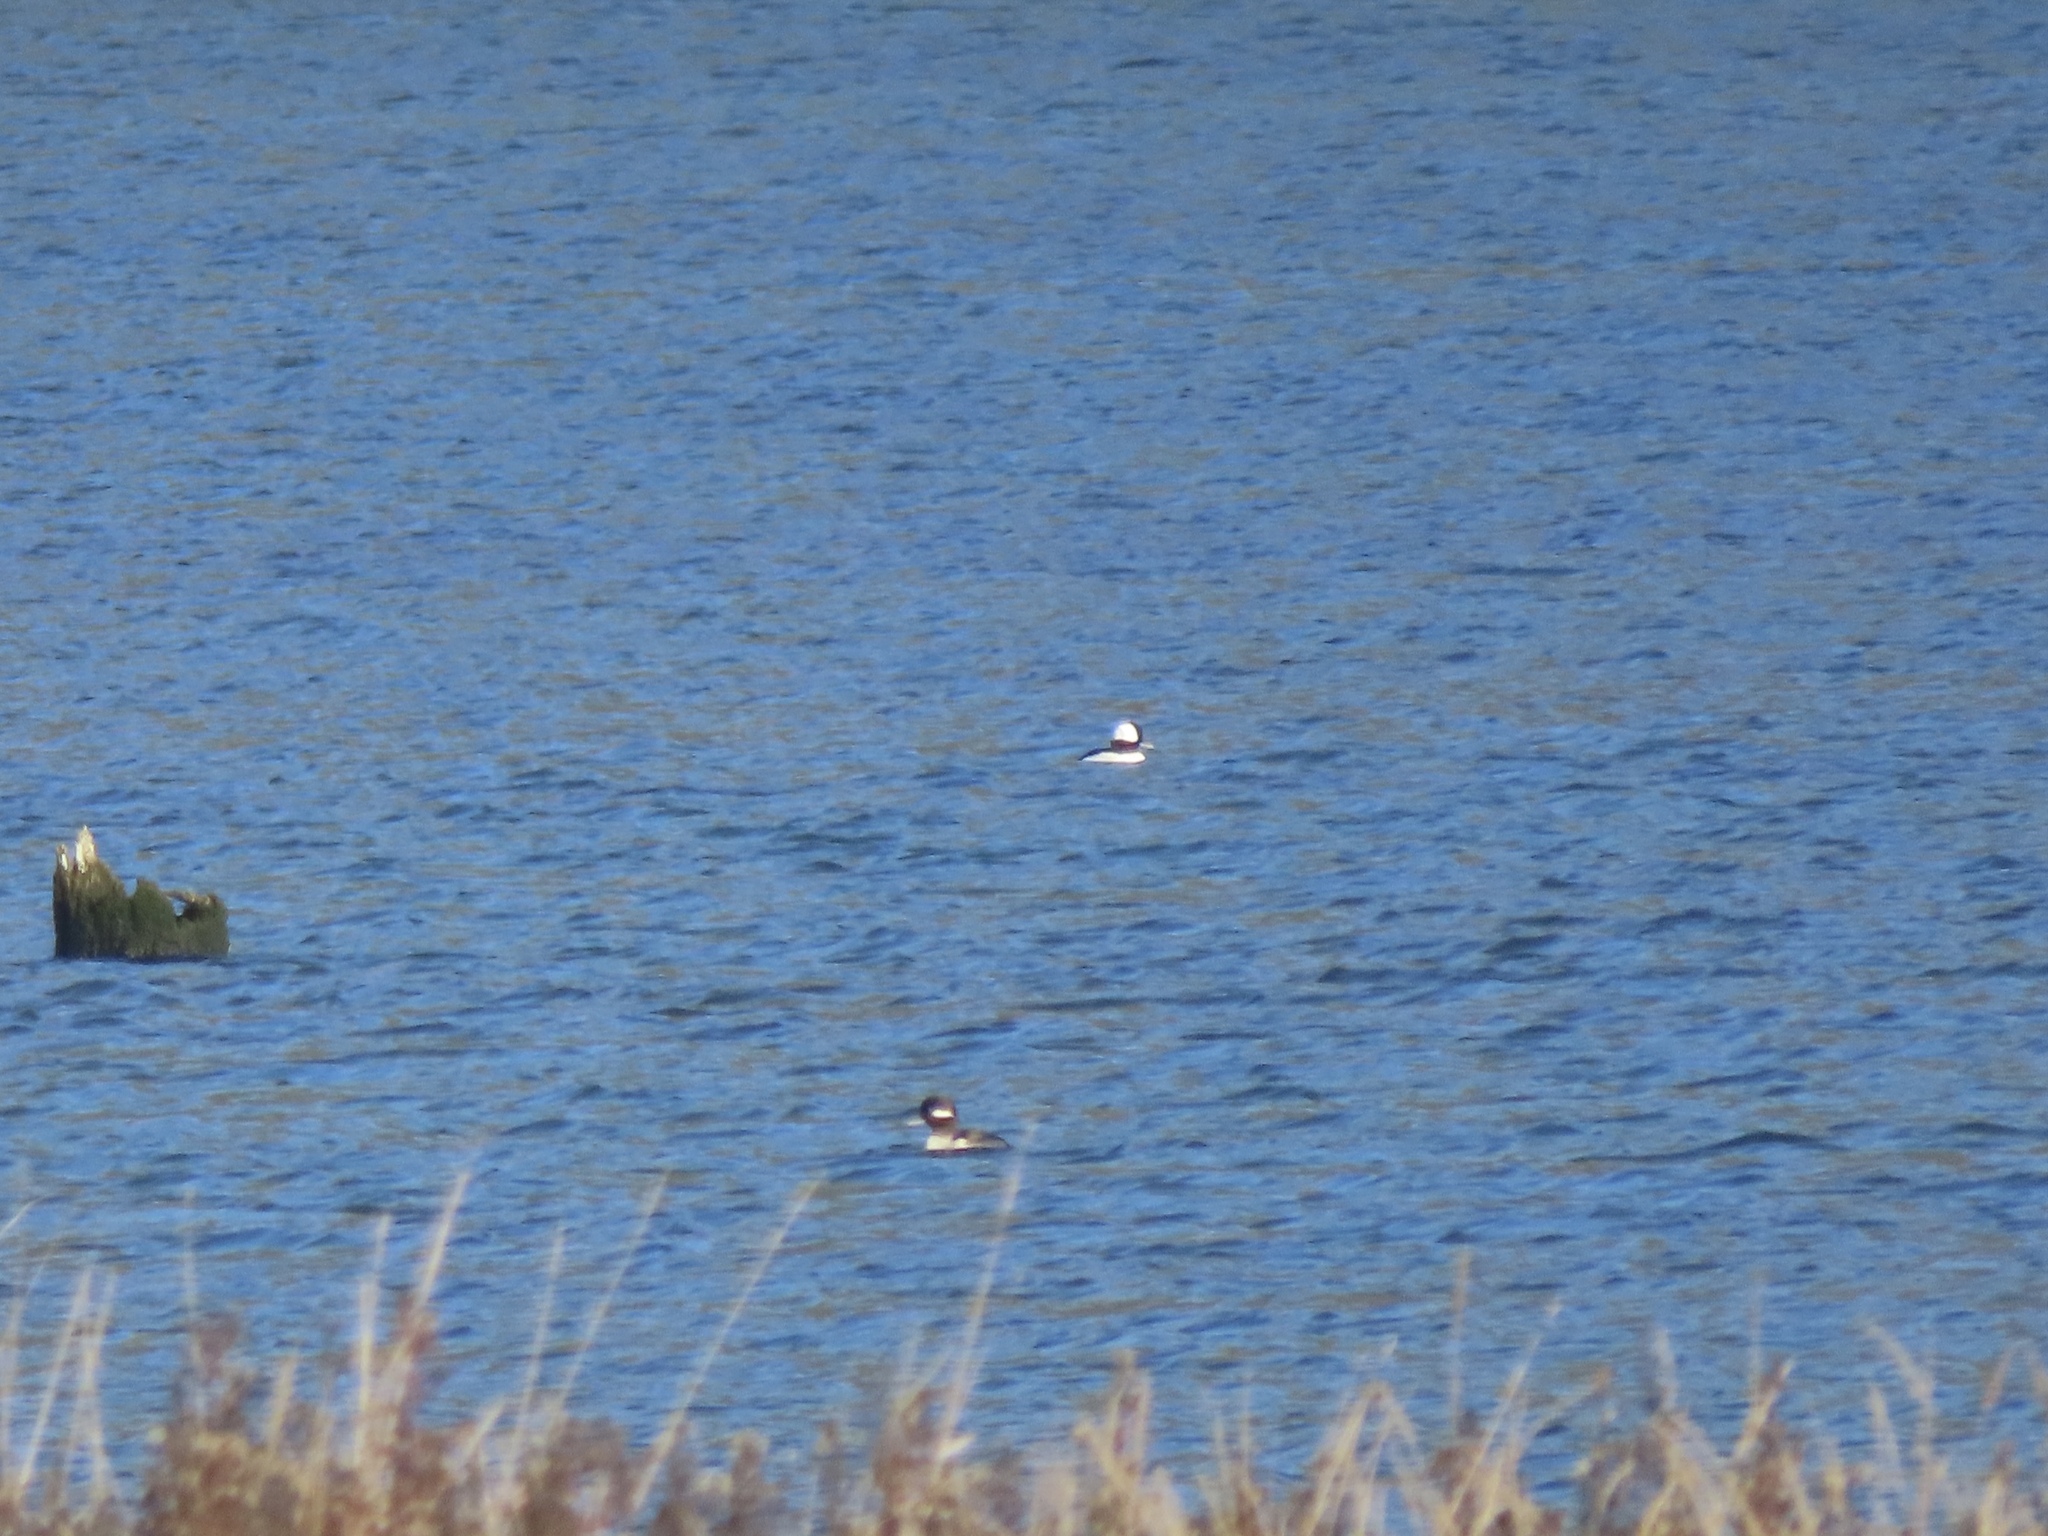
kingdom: Animalia
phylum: Chordata
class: Aves
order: Anseriformes
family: Anatidae
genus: Bucephala
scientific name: Bucephala albeola
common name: Bufflehead
